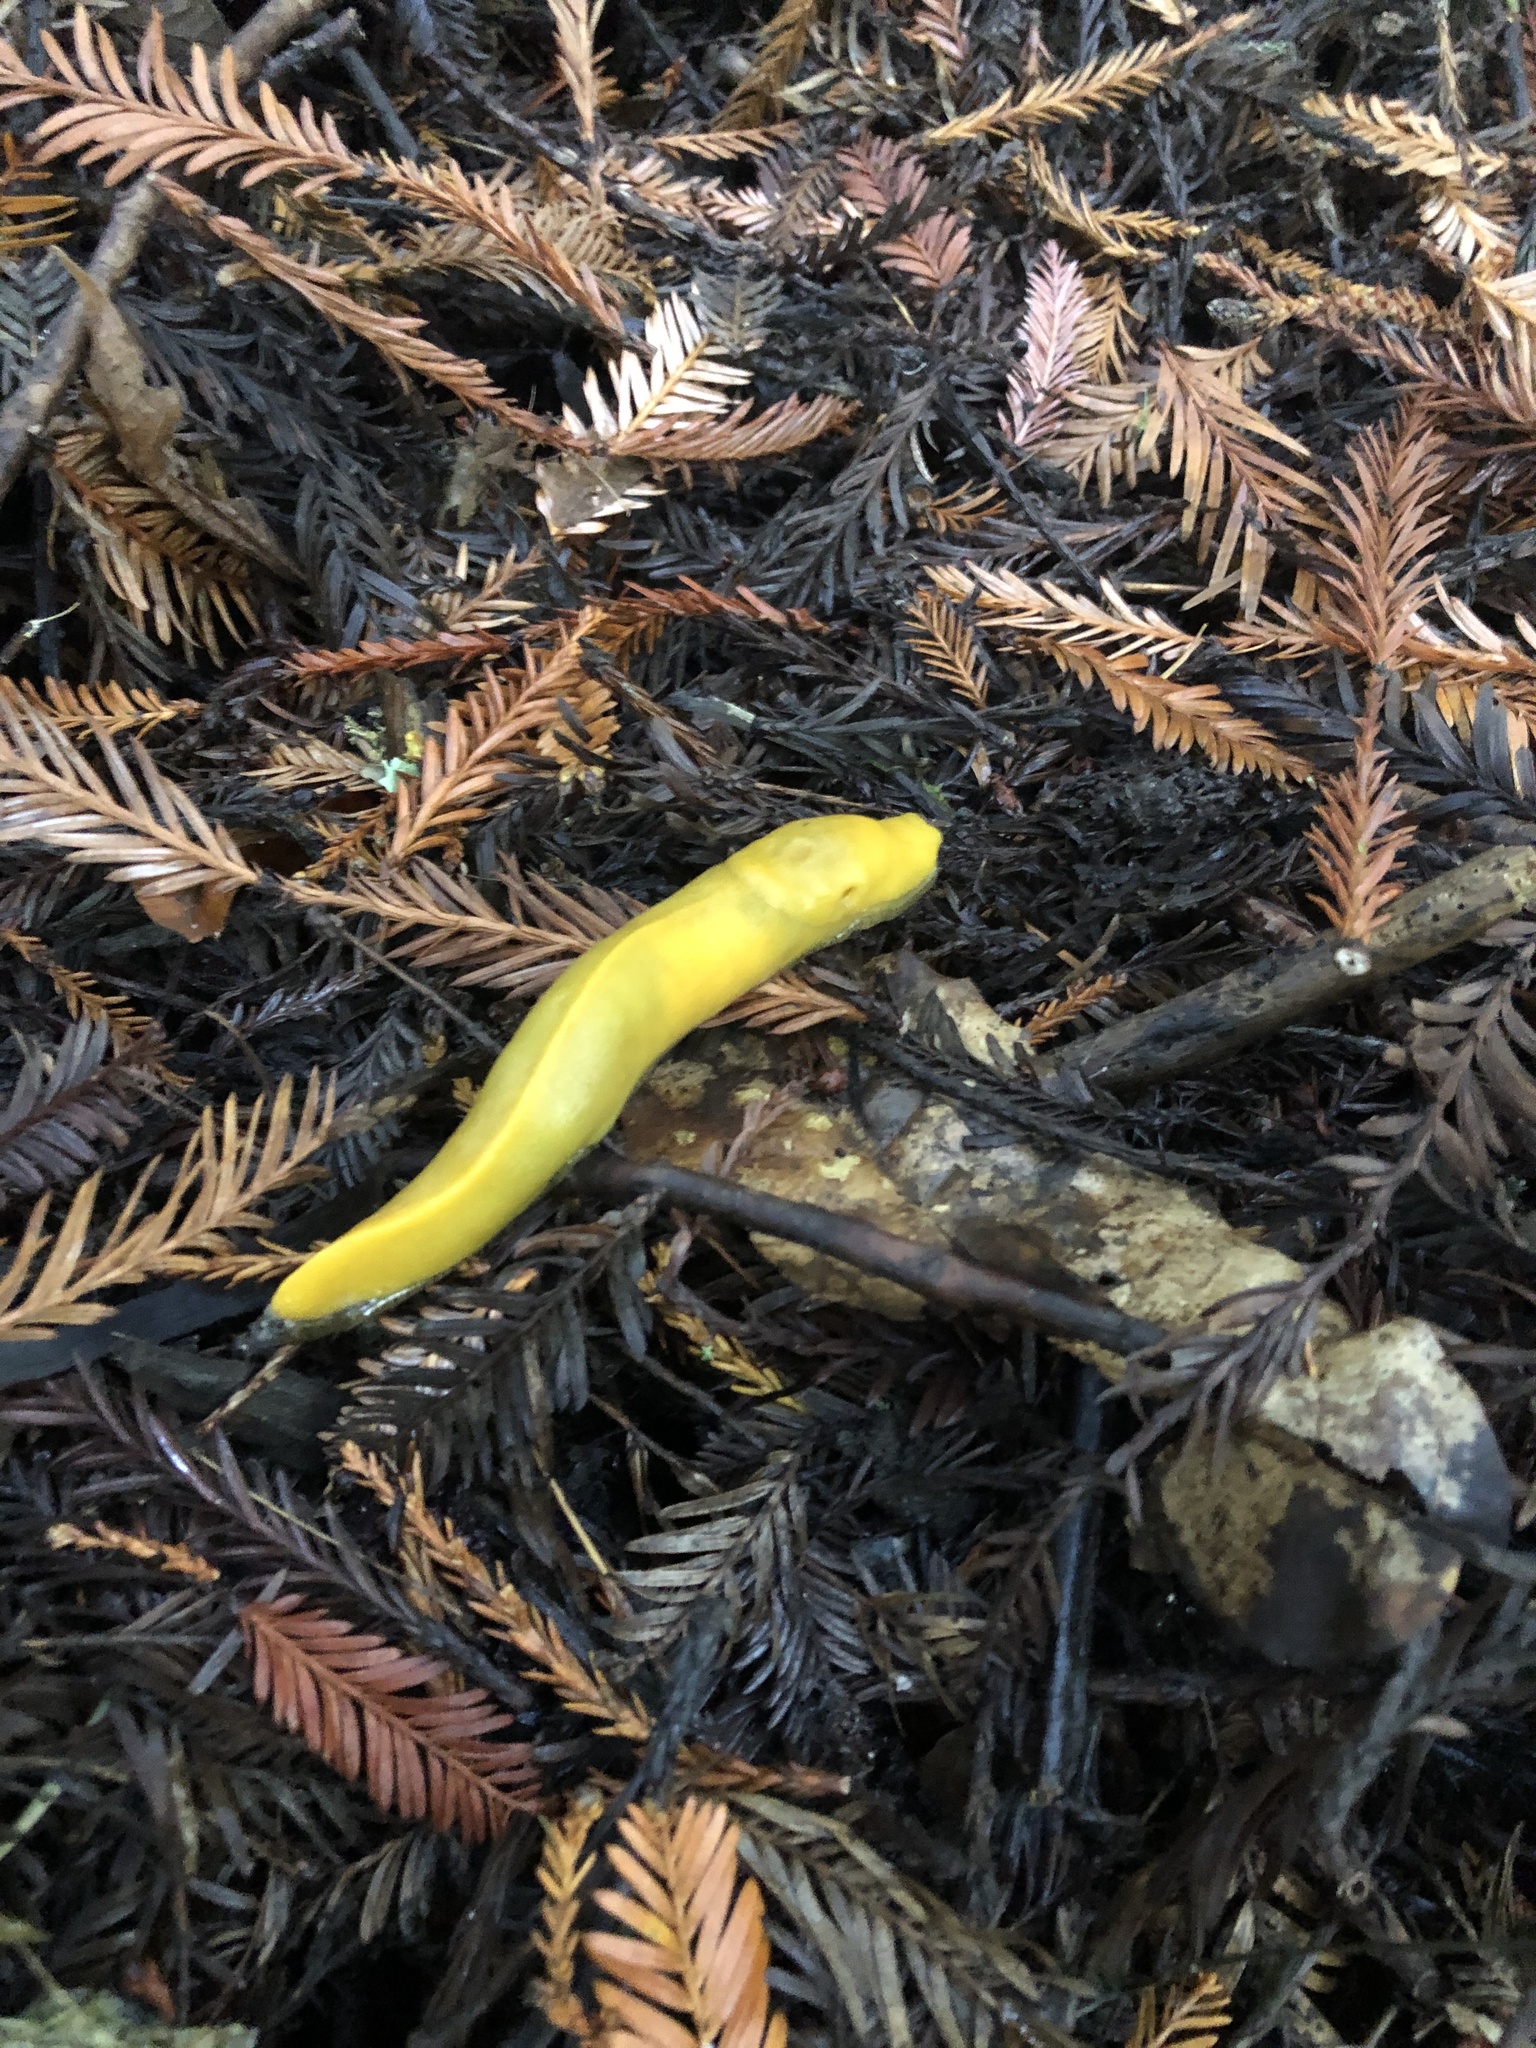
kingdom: Animalia
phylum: Mollusca
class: Gastropoda
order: Stylommatophora
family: Ariolimacidae
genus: Ariolimax
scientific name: Ariolimax dolichophallus
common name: Slender banana slug
